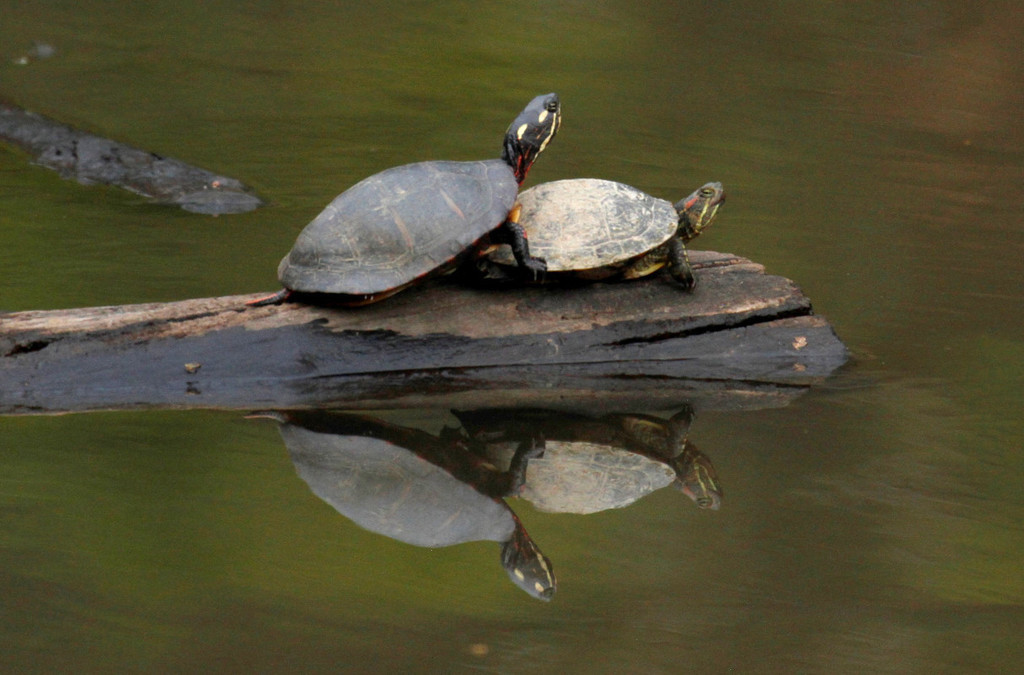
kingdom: Animalia
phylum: Chordata
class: Testudines
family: Emydidae
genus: Trachemys
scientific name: Trachemys scripta
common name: Slider
